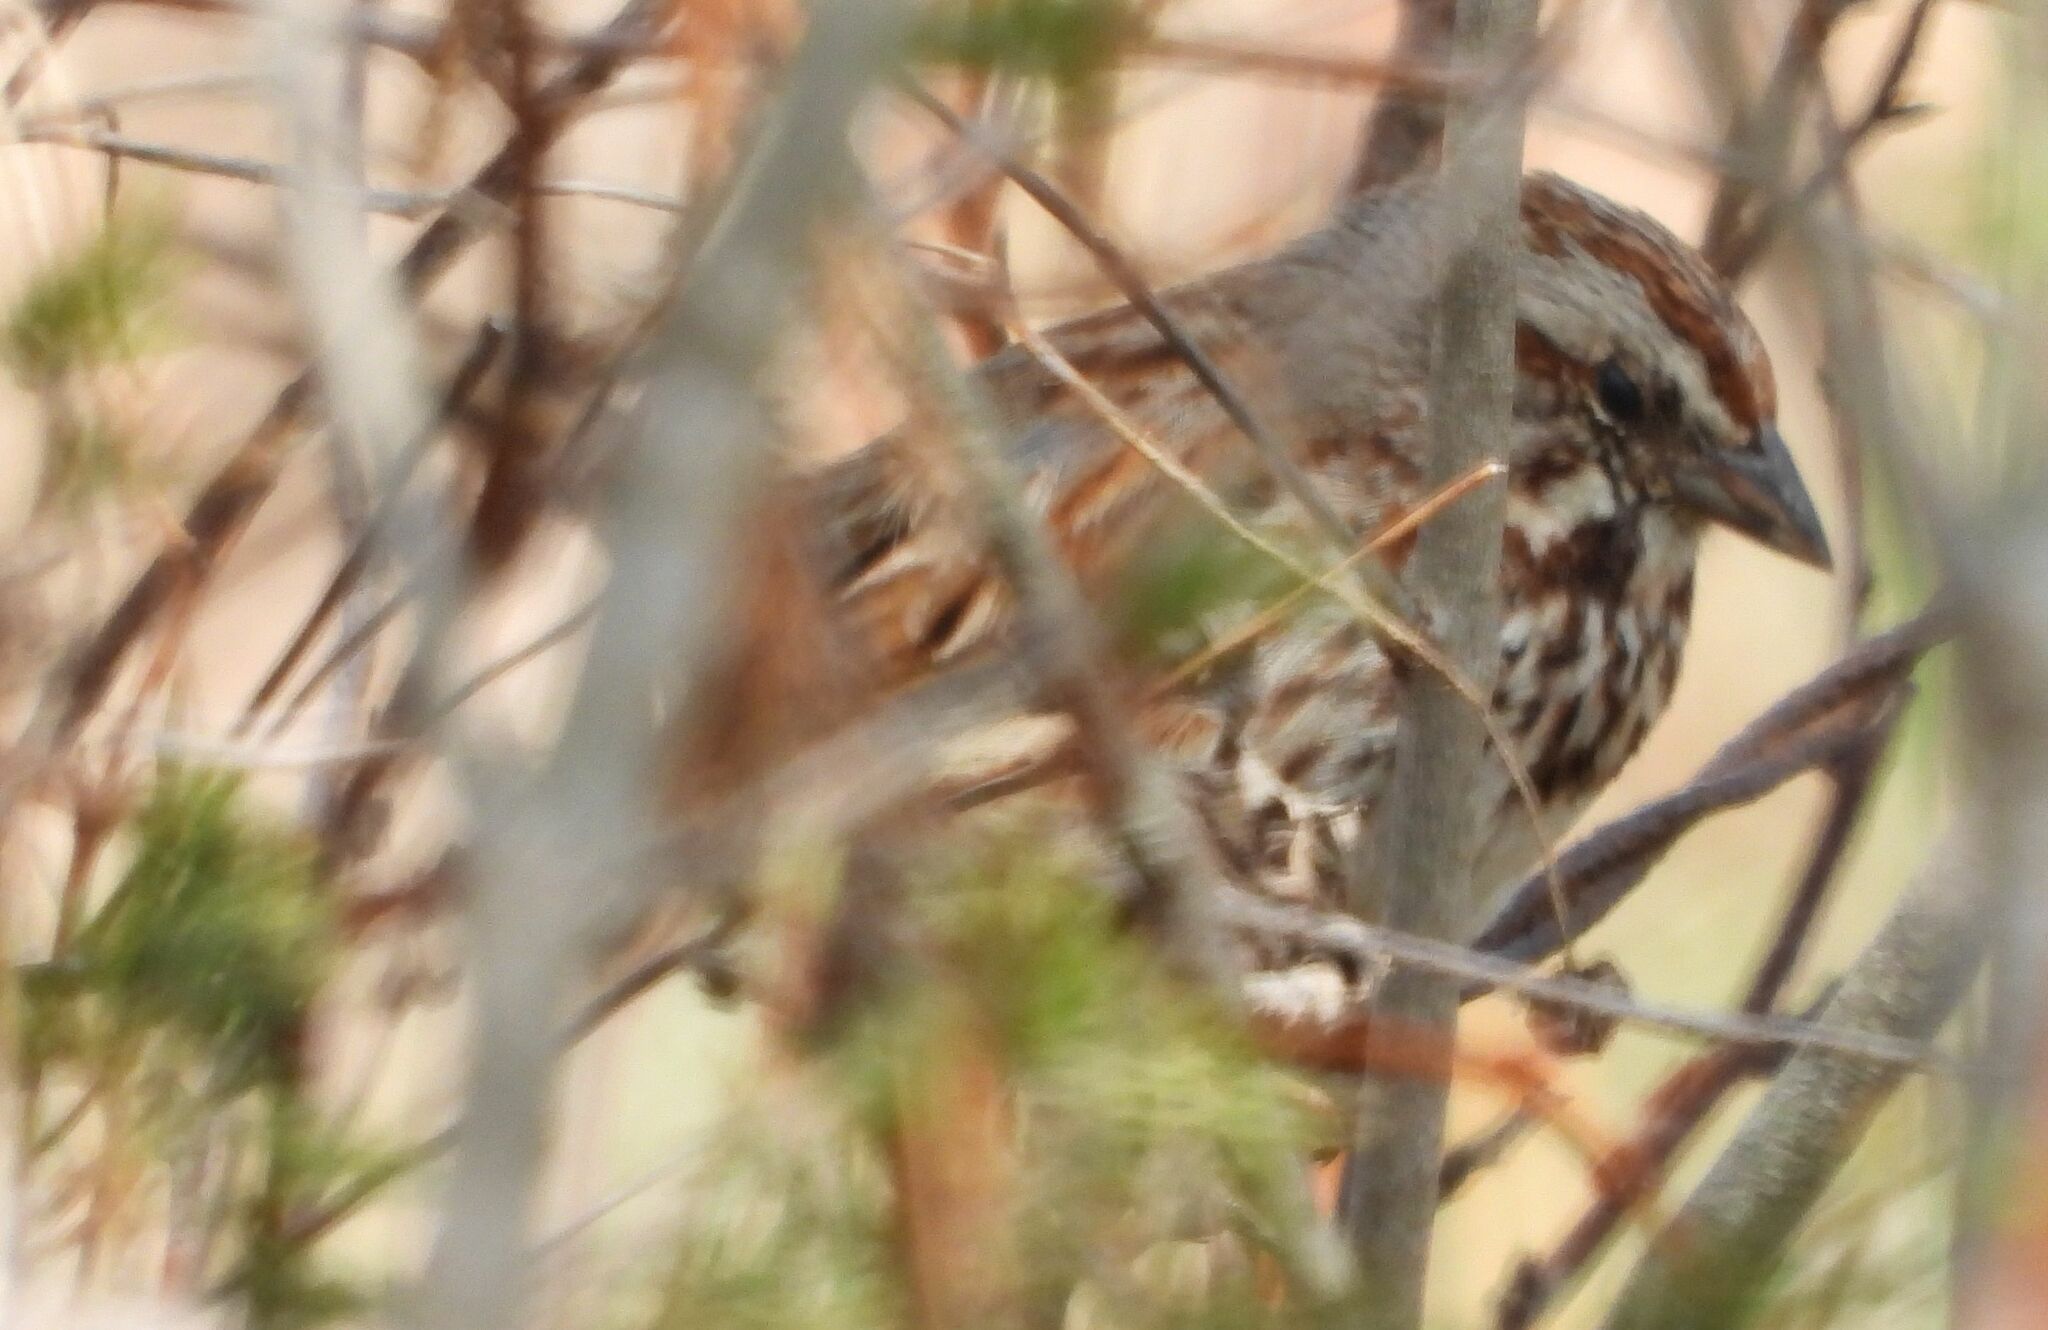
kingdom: Animalia
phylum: Chordata
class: Aves
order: Passeriformes
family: Passerellidae
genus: Melospiza
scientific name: Melospiza melodia
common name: Song sparrow
